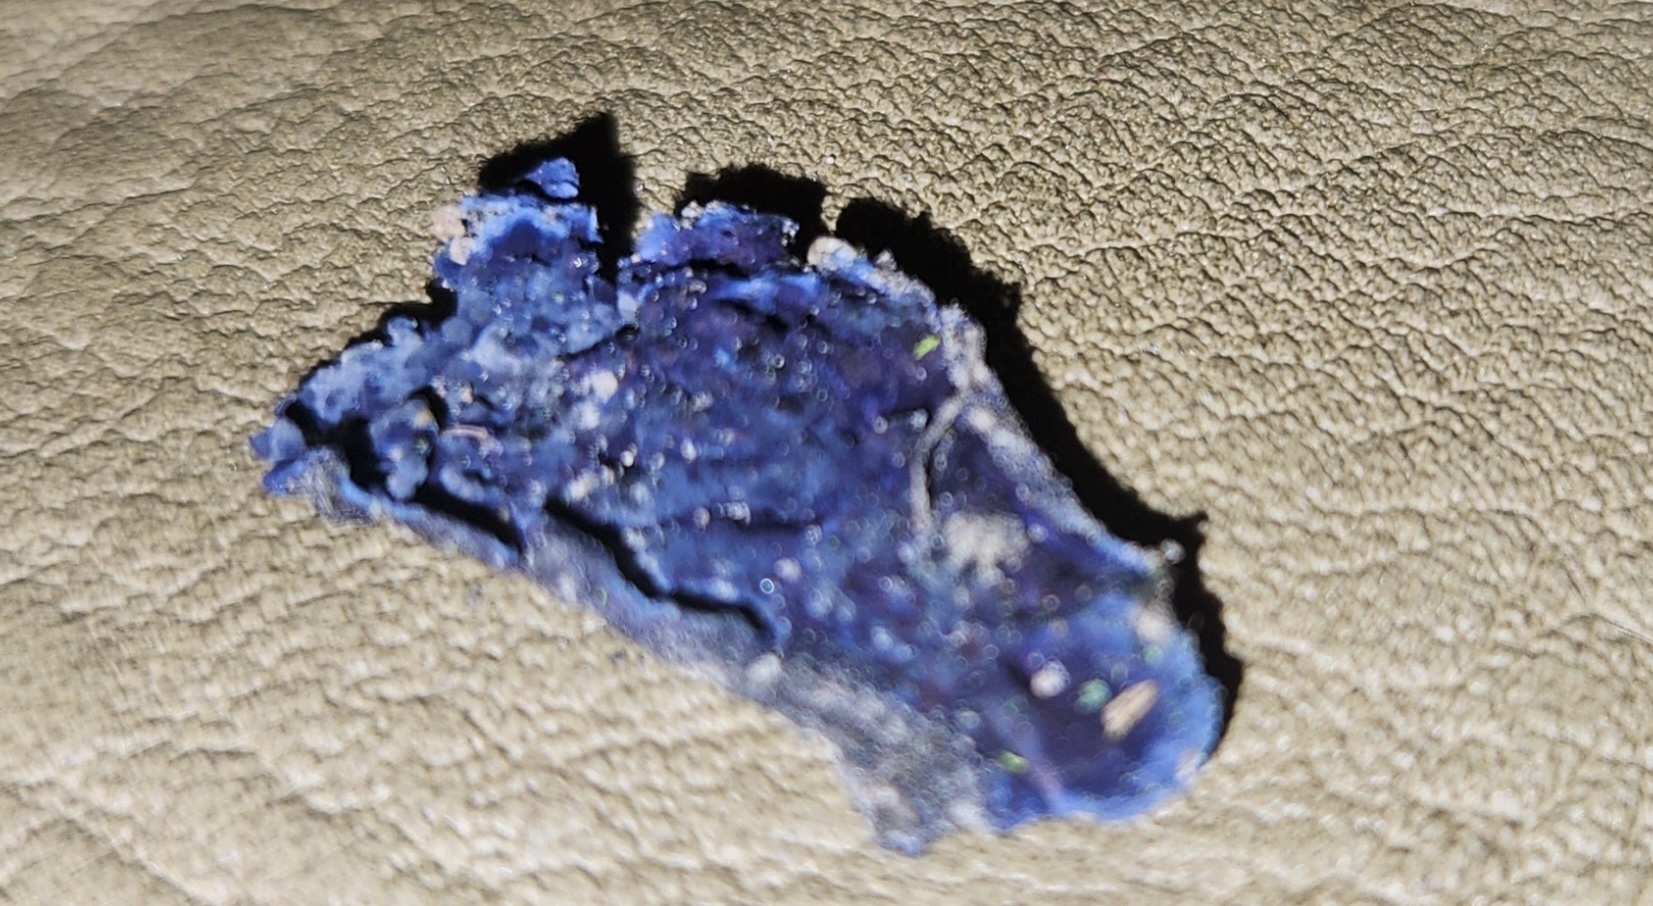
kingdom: Fungi
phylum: Basidiomycota
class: Agaricomycetes
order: Polyporales
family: Phanerochaetaceae
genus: Terana
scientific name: Terana coerulea
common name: Cobalt crust
